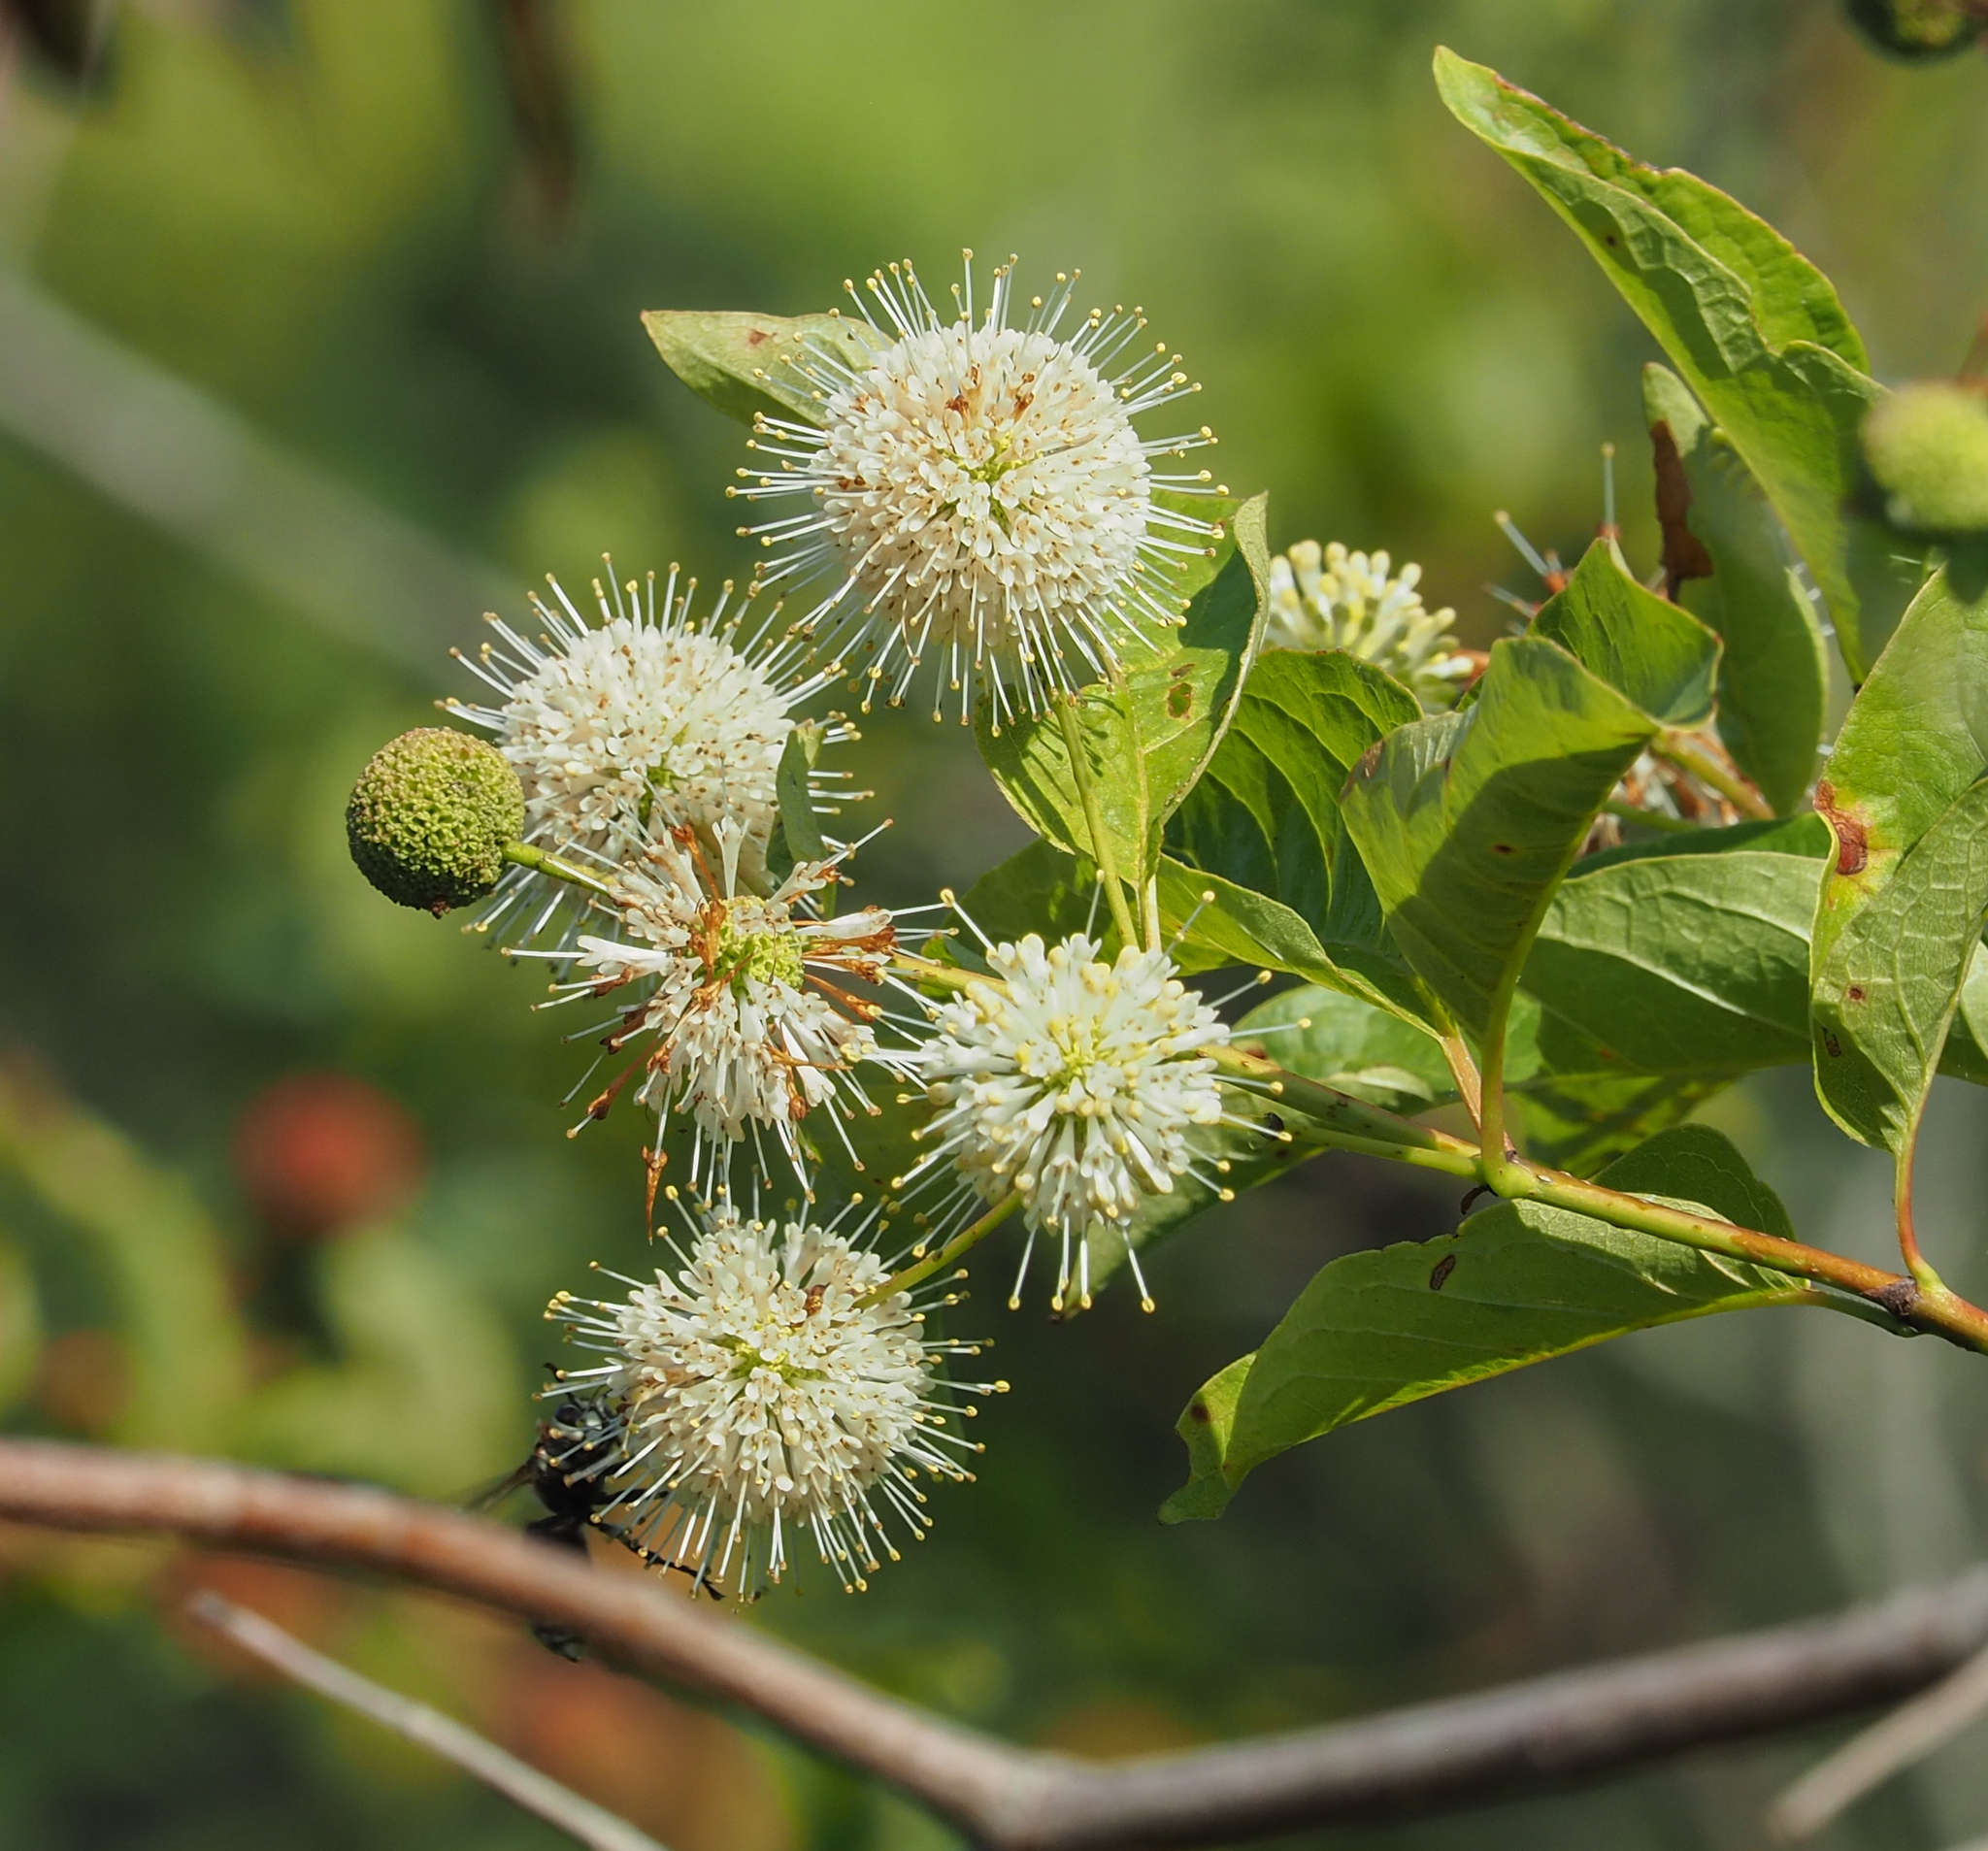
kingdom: Plantae
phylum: Tracheophyta
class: Magnoliopsida
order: Gentianales
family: Rubiaceae
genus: Cephalanthus
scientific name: Cephalanthus occidentalis
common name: Button-willow
